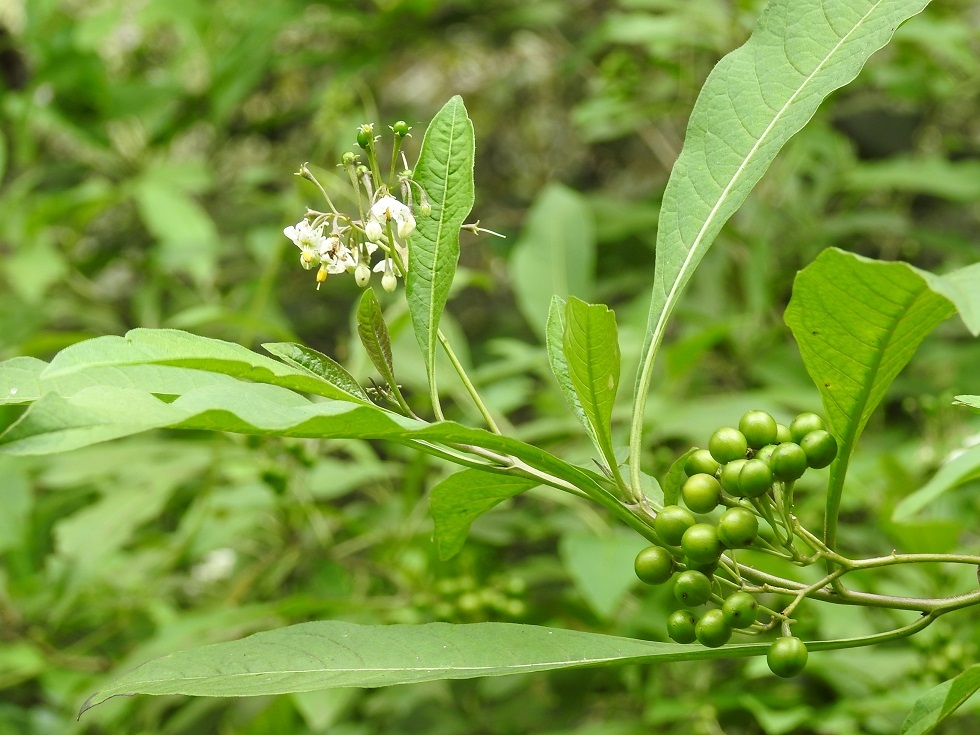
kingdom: Plantae
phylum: Tracheophyta
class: Magnoliopsida
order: Solanales
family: Solanaceae
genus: Solanum
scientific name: Solanum pubigerum
